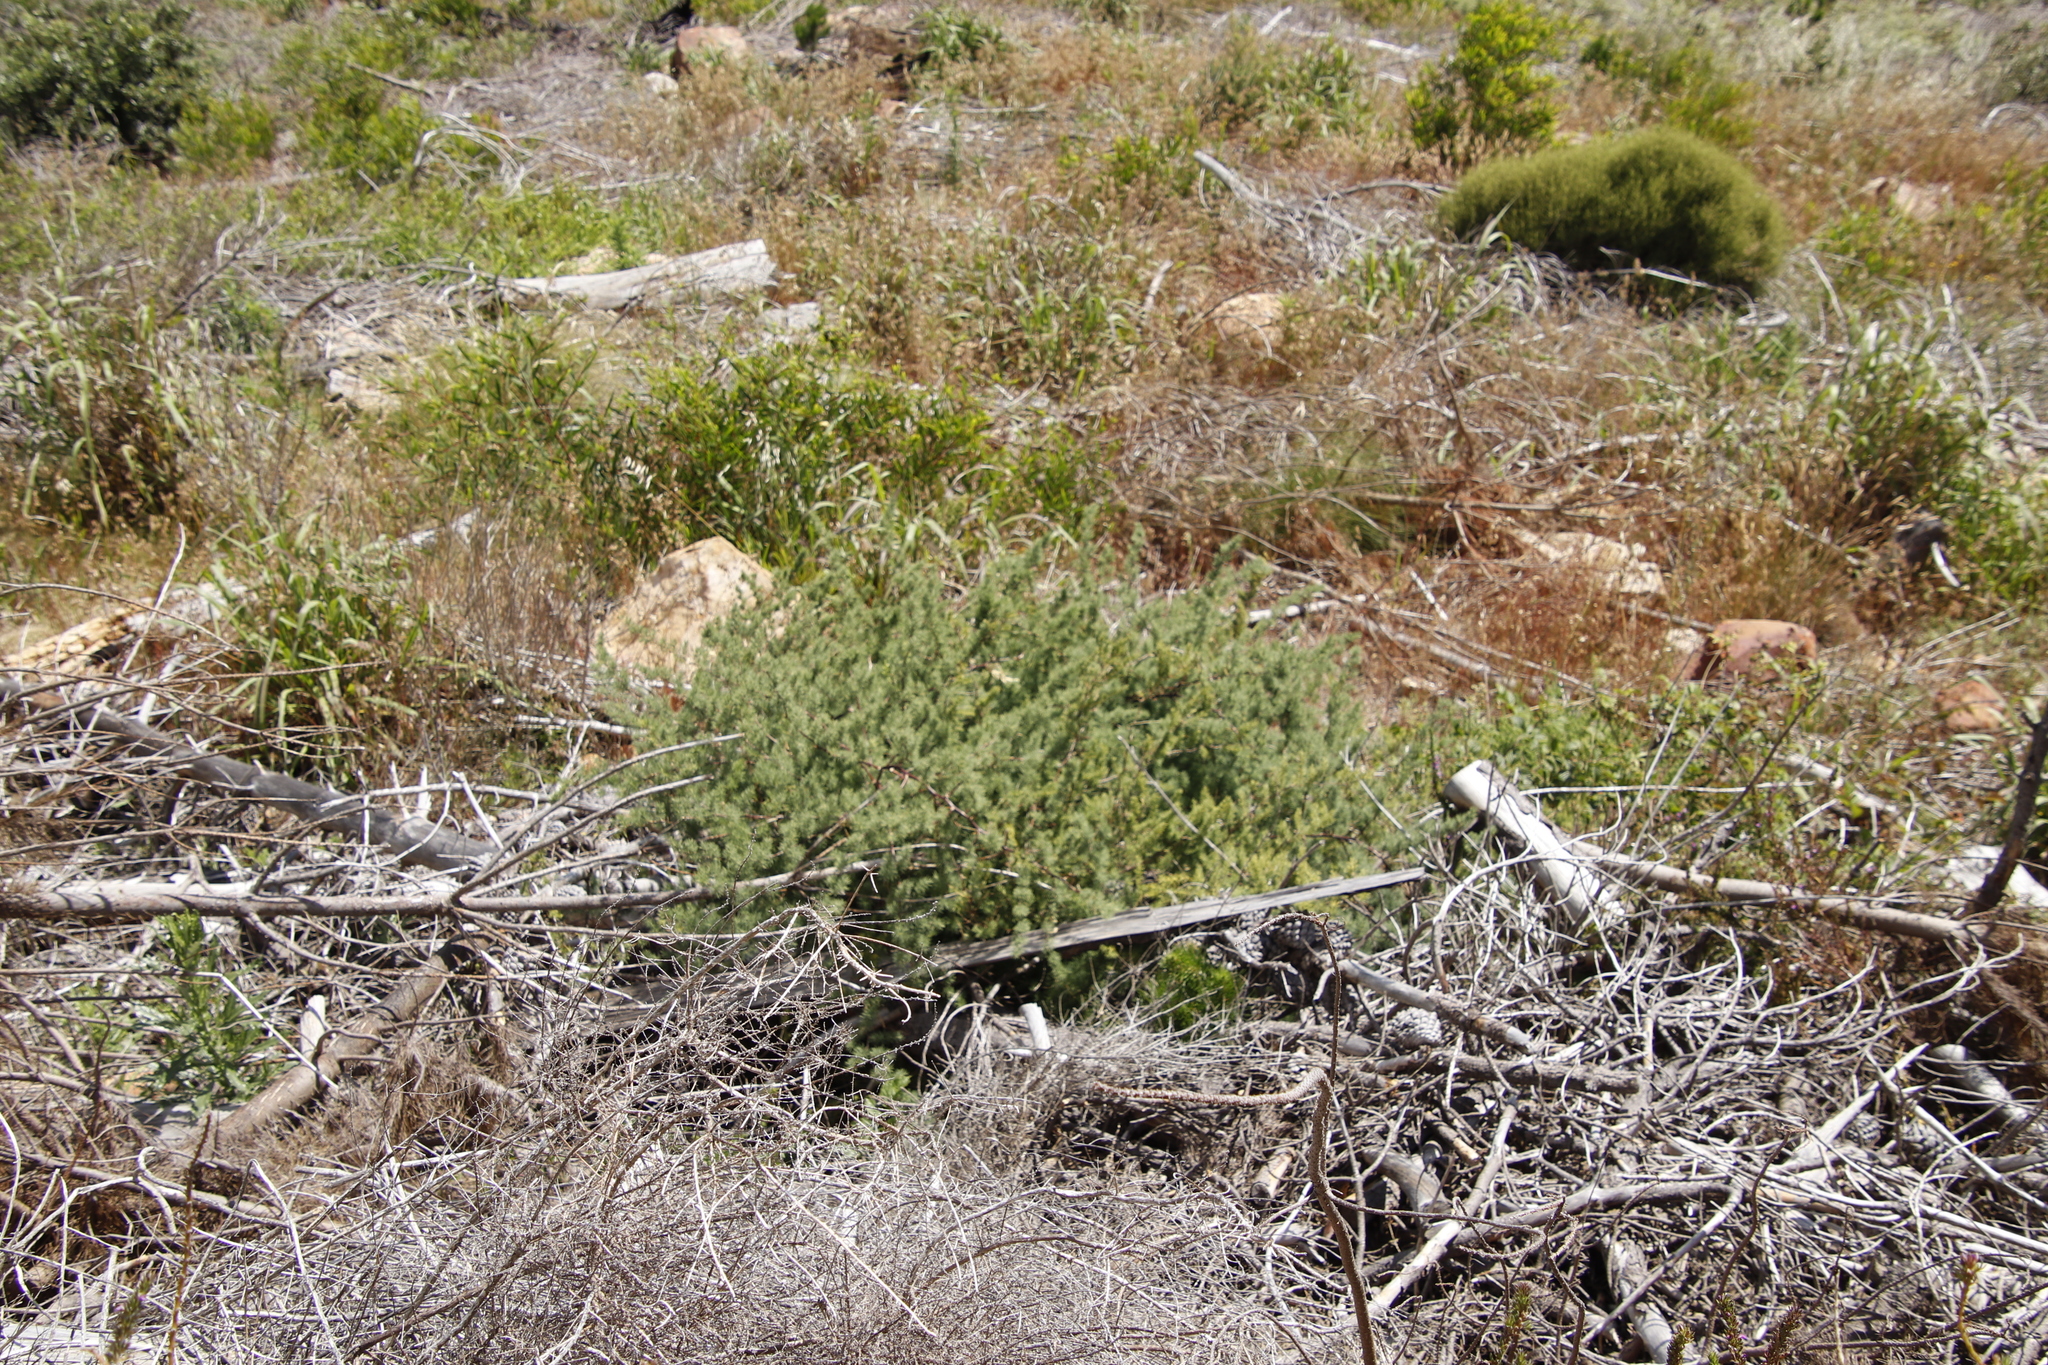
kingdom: Plantae
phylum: Tracheophyta
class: Liliopsida
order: Asparagales
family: Asparagaceae
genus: Asparagus
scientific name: Asparagus rubicundus
